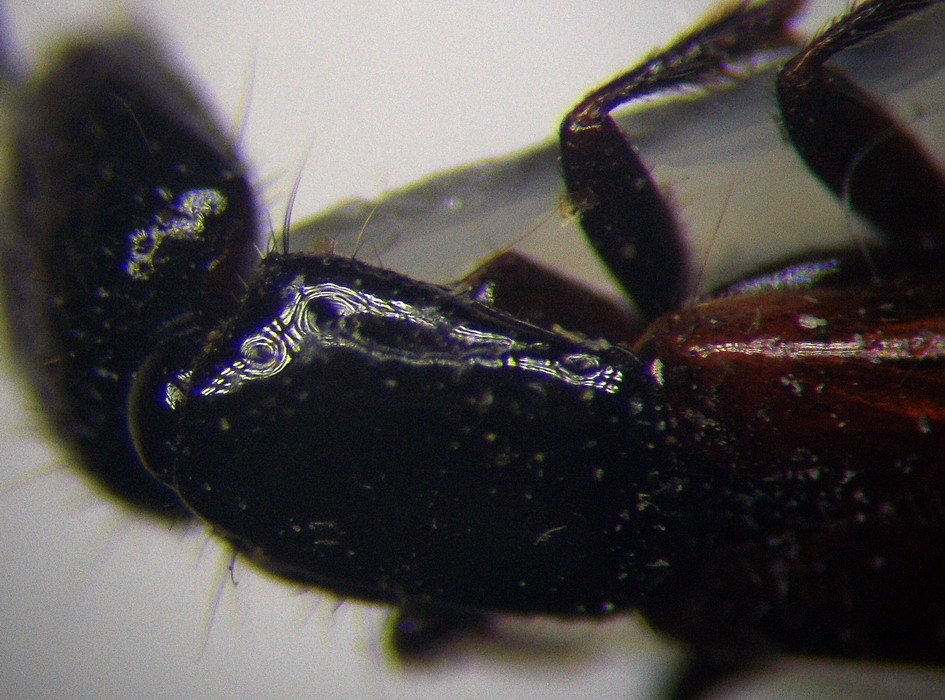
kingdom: Animalia
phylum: Arthropoda
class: Insecta
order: Coleoptera
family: Staphylinidae
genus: Gauropterus
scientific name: Gauropterus fulgidus
